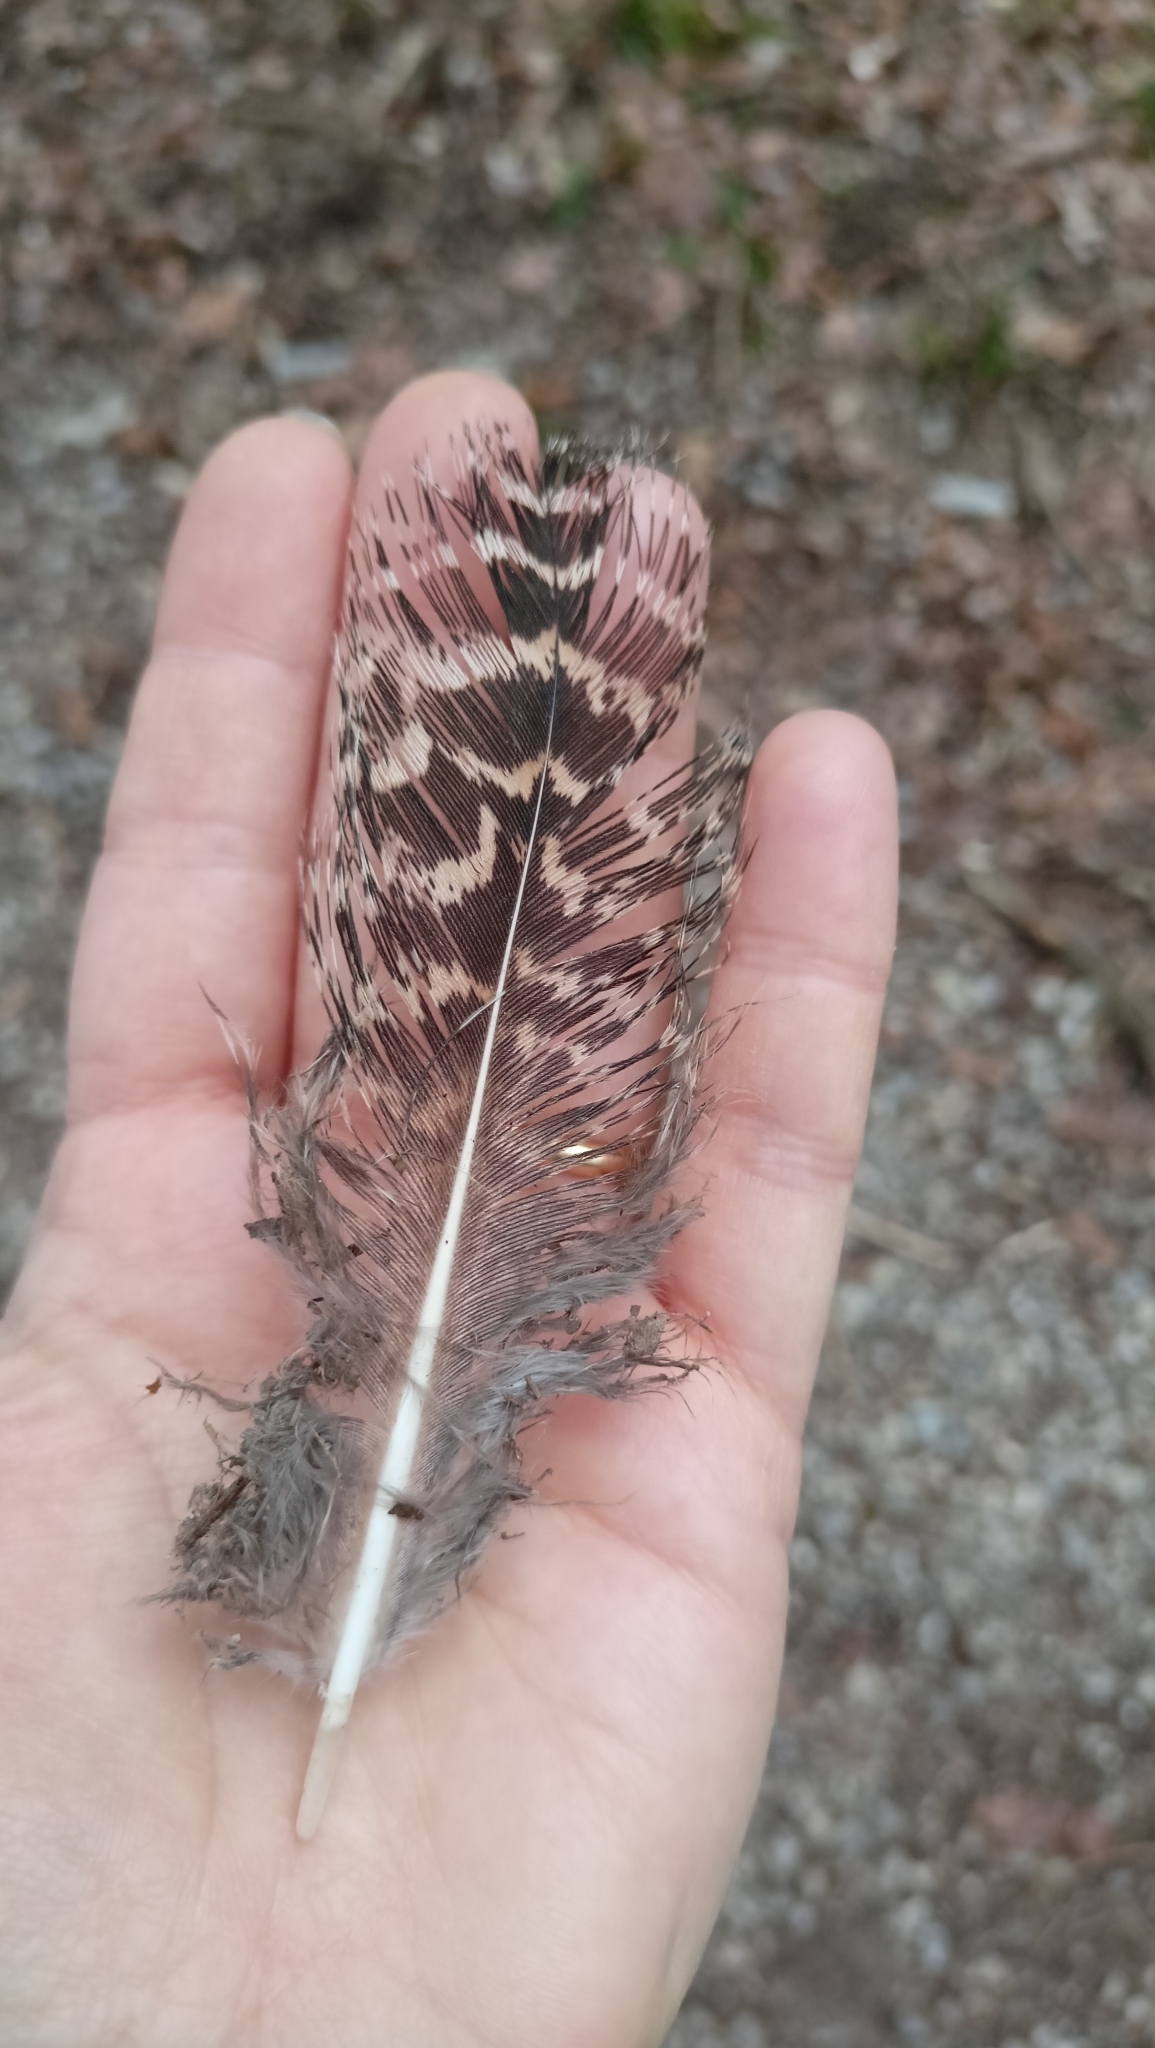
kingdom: Animalia
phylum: Chordata
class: Aves
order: Galliformes
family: Phasianidae
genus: Pavo
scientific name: Pavo cristatus
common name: Indian peafowl
